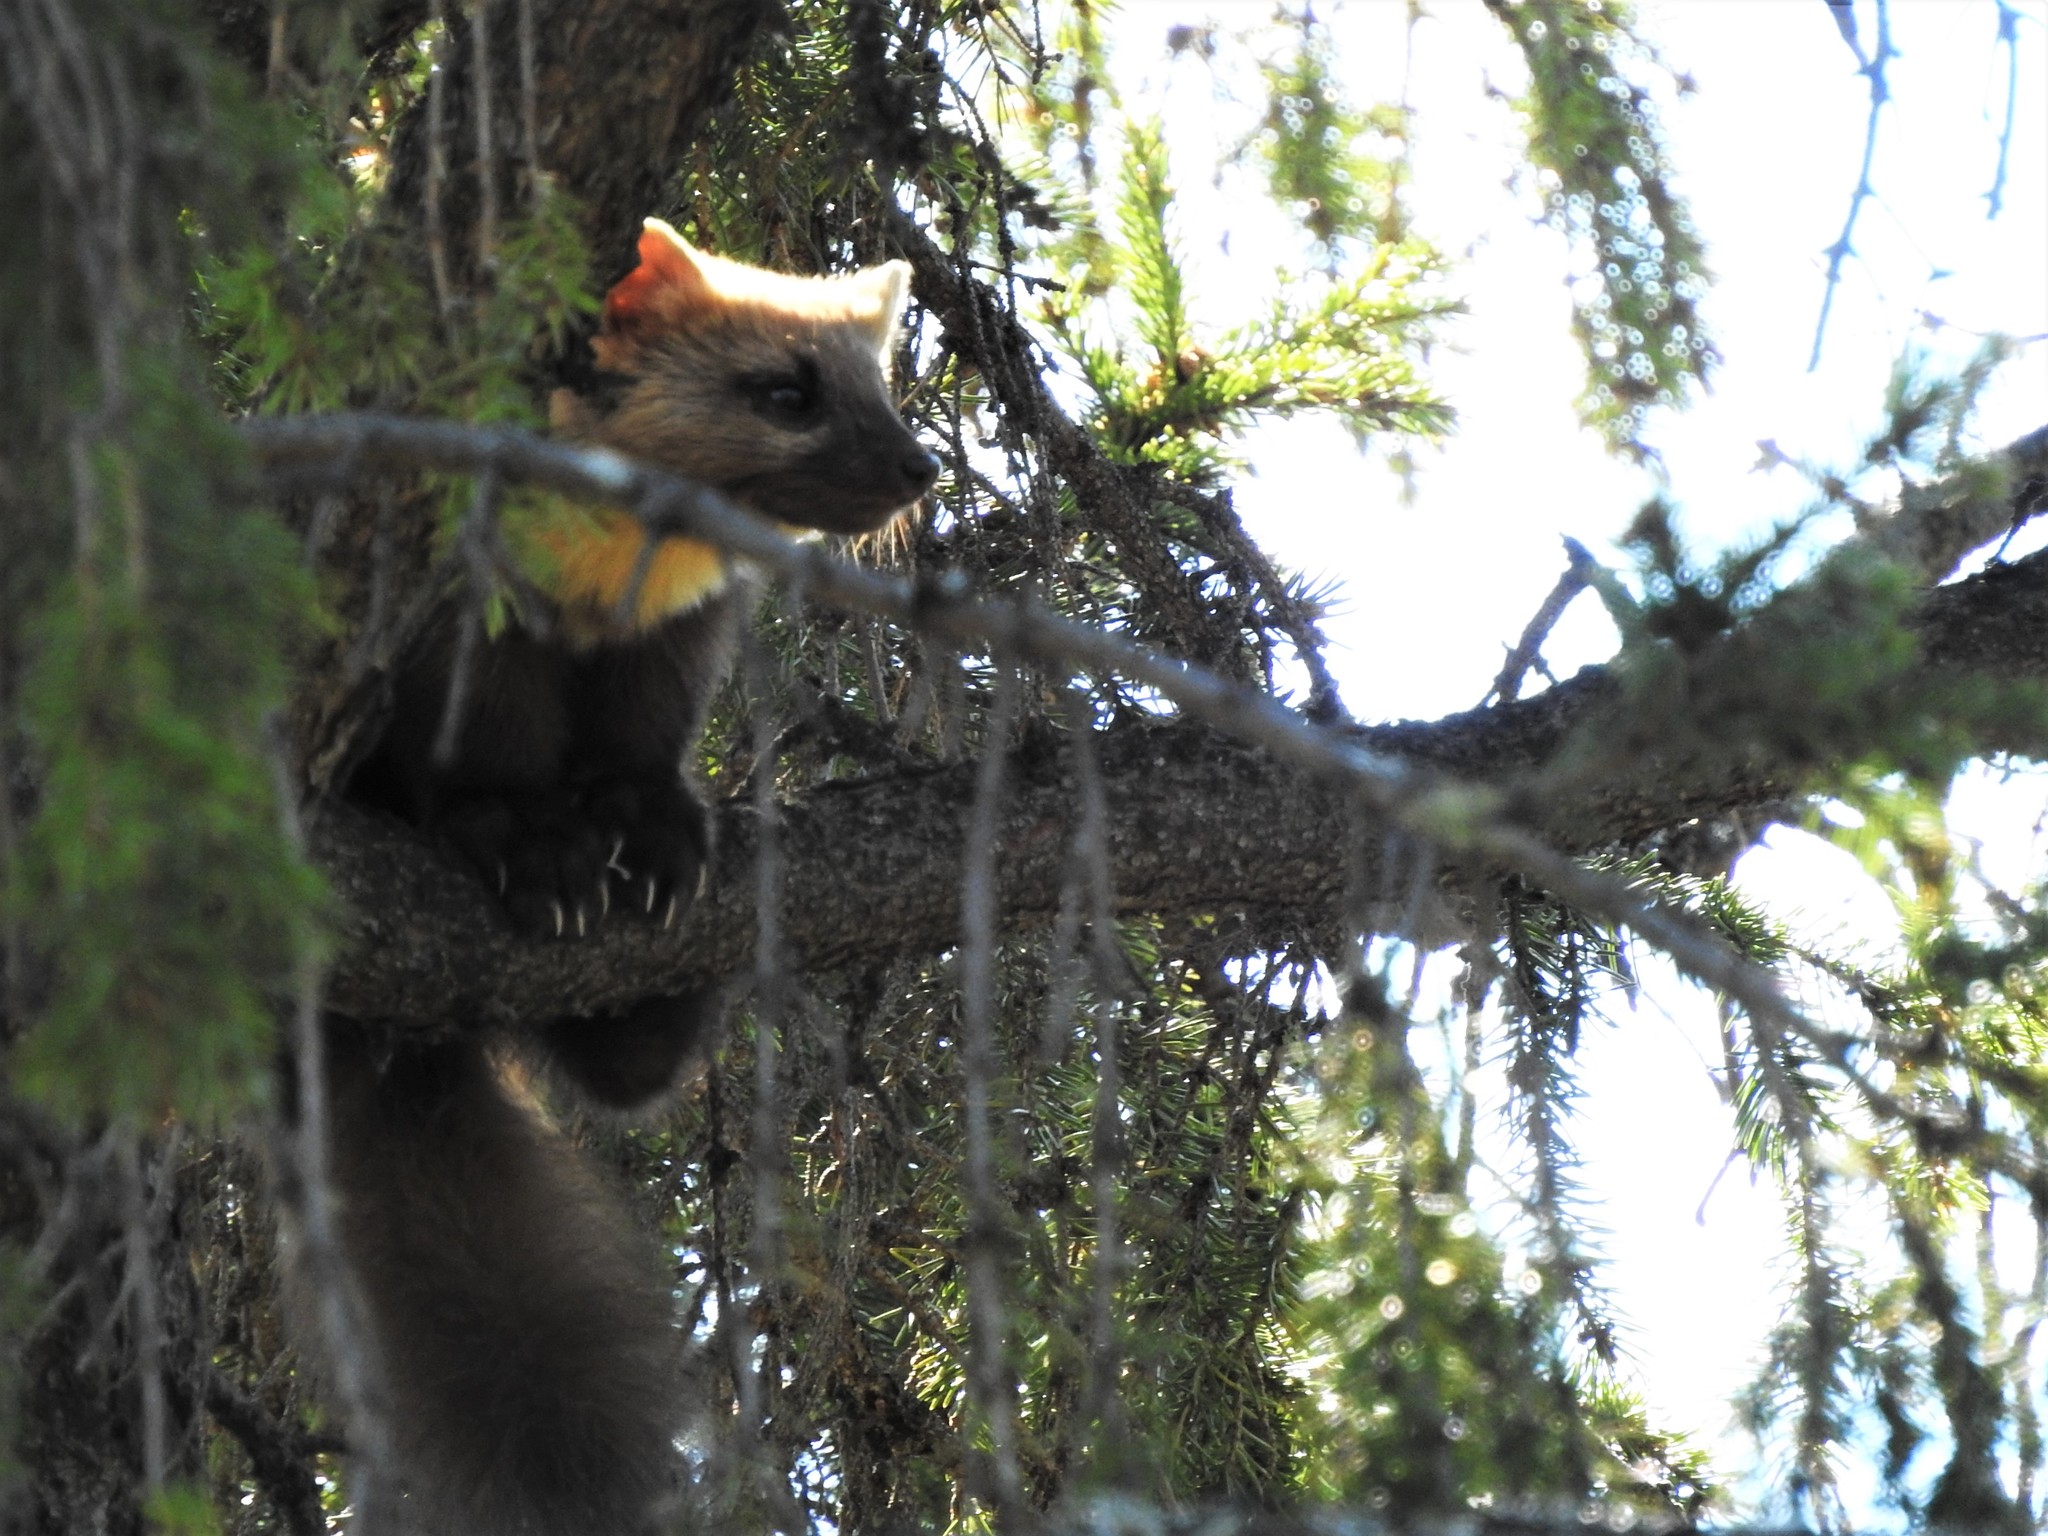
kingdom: Animalia
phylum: Chordata
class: Mammalia
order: Carnivora
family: Mustelidae
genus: Martes
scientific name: Martes martes
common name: European pine marten
